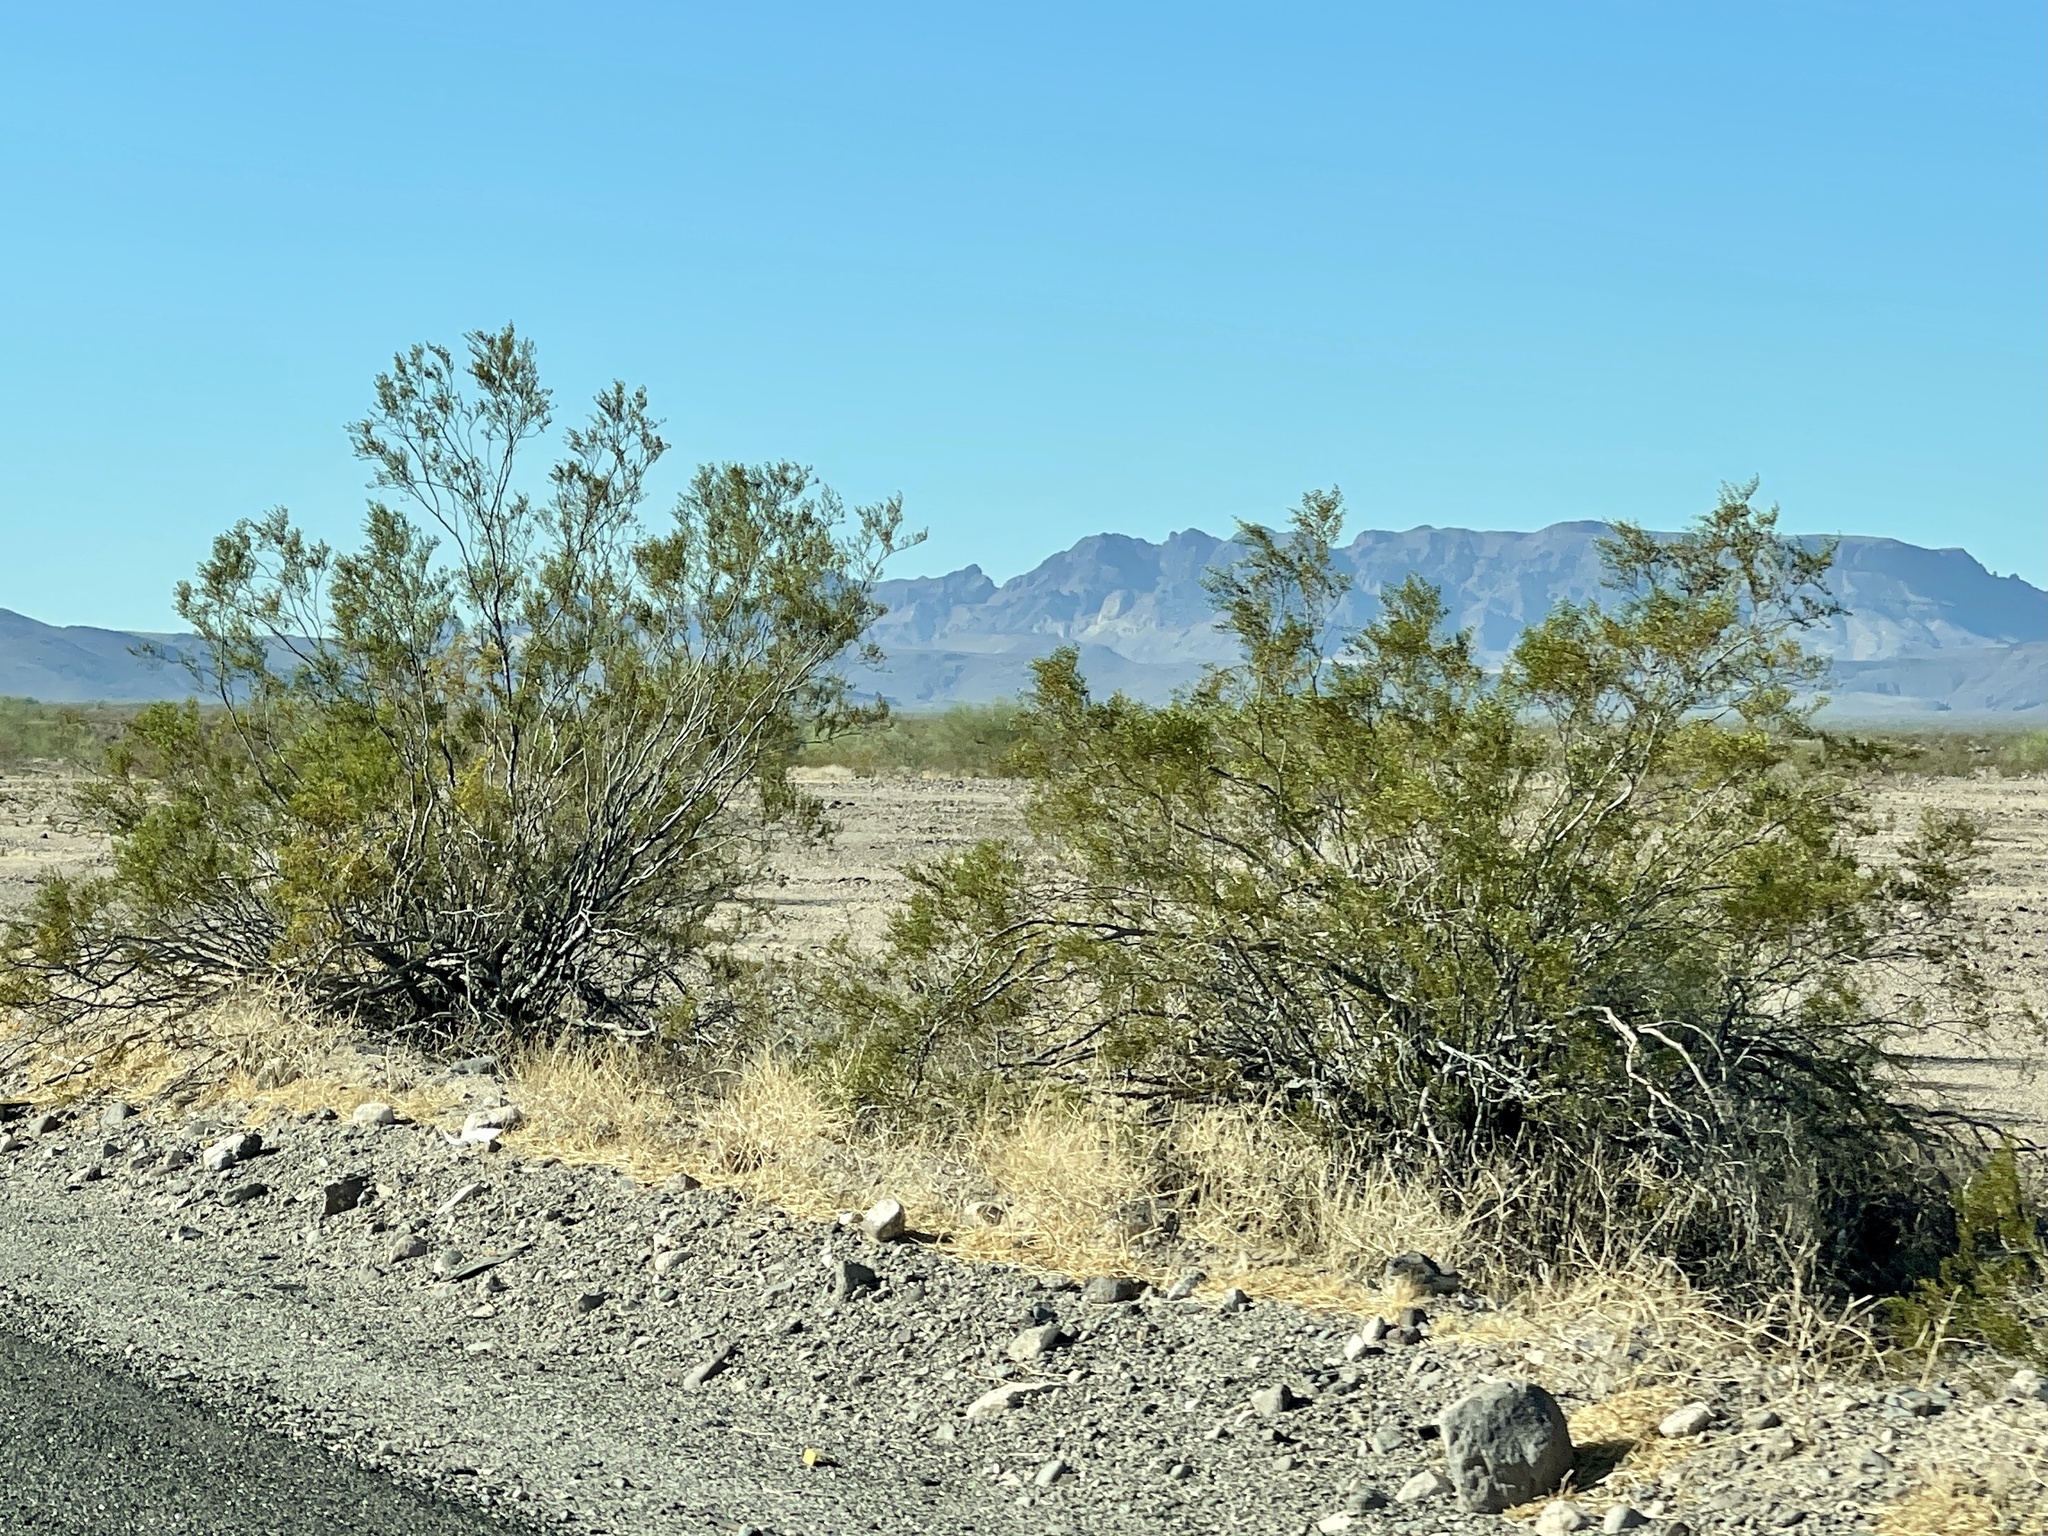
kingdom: Plantae
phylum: Tracheophyta
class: Magnoliopsida
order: Zygophyllales
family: Zygophyllaceae
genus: Larrea
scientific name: Larrea tridentata
